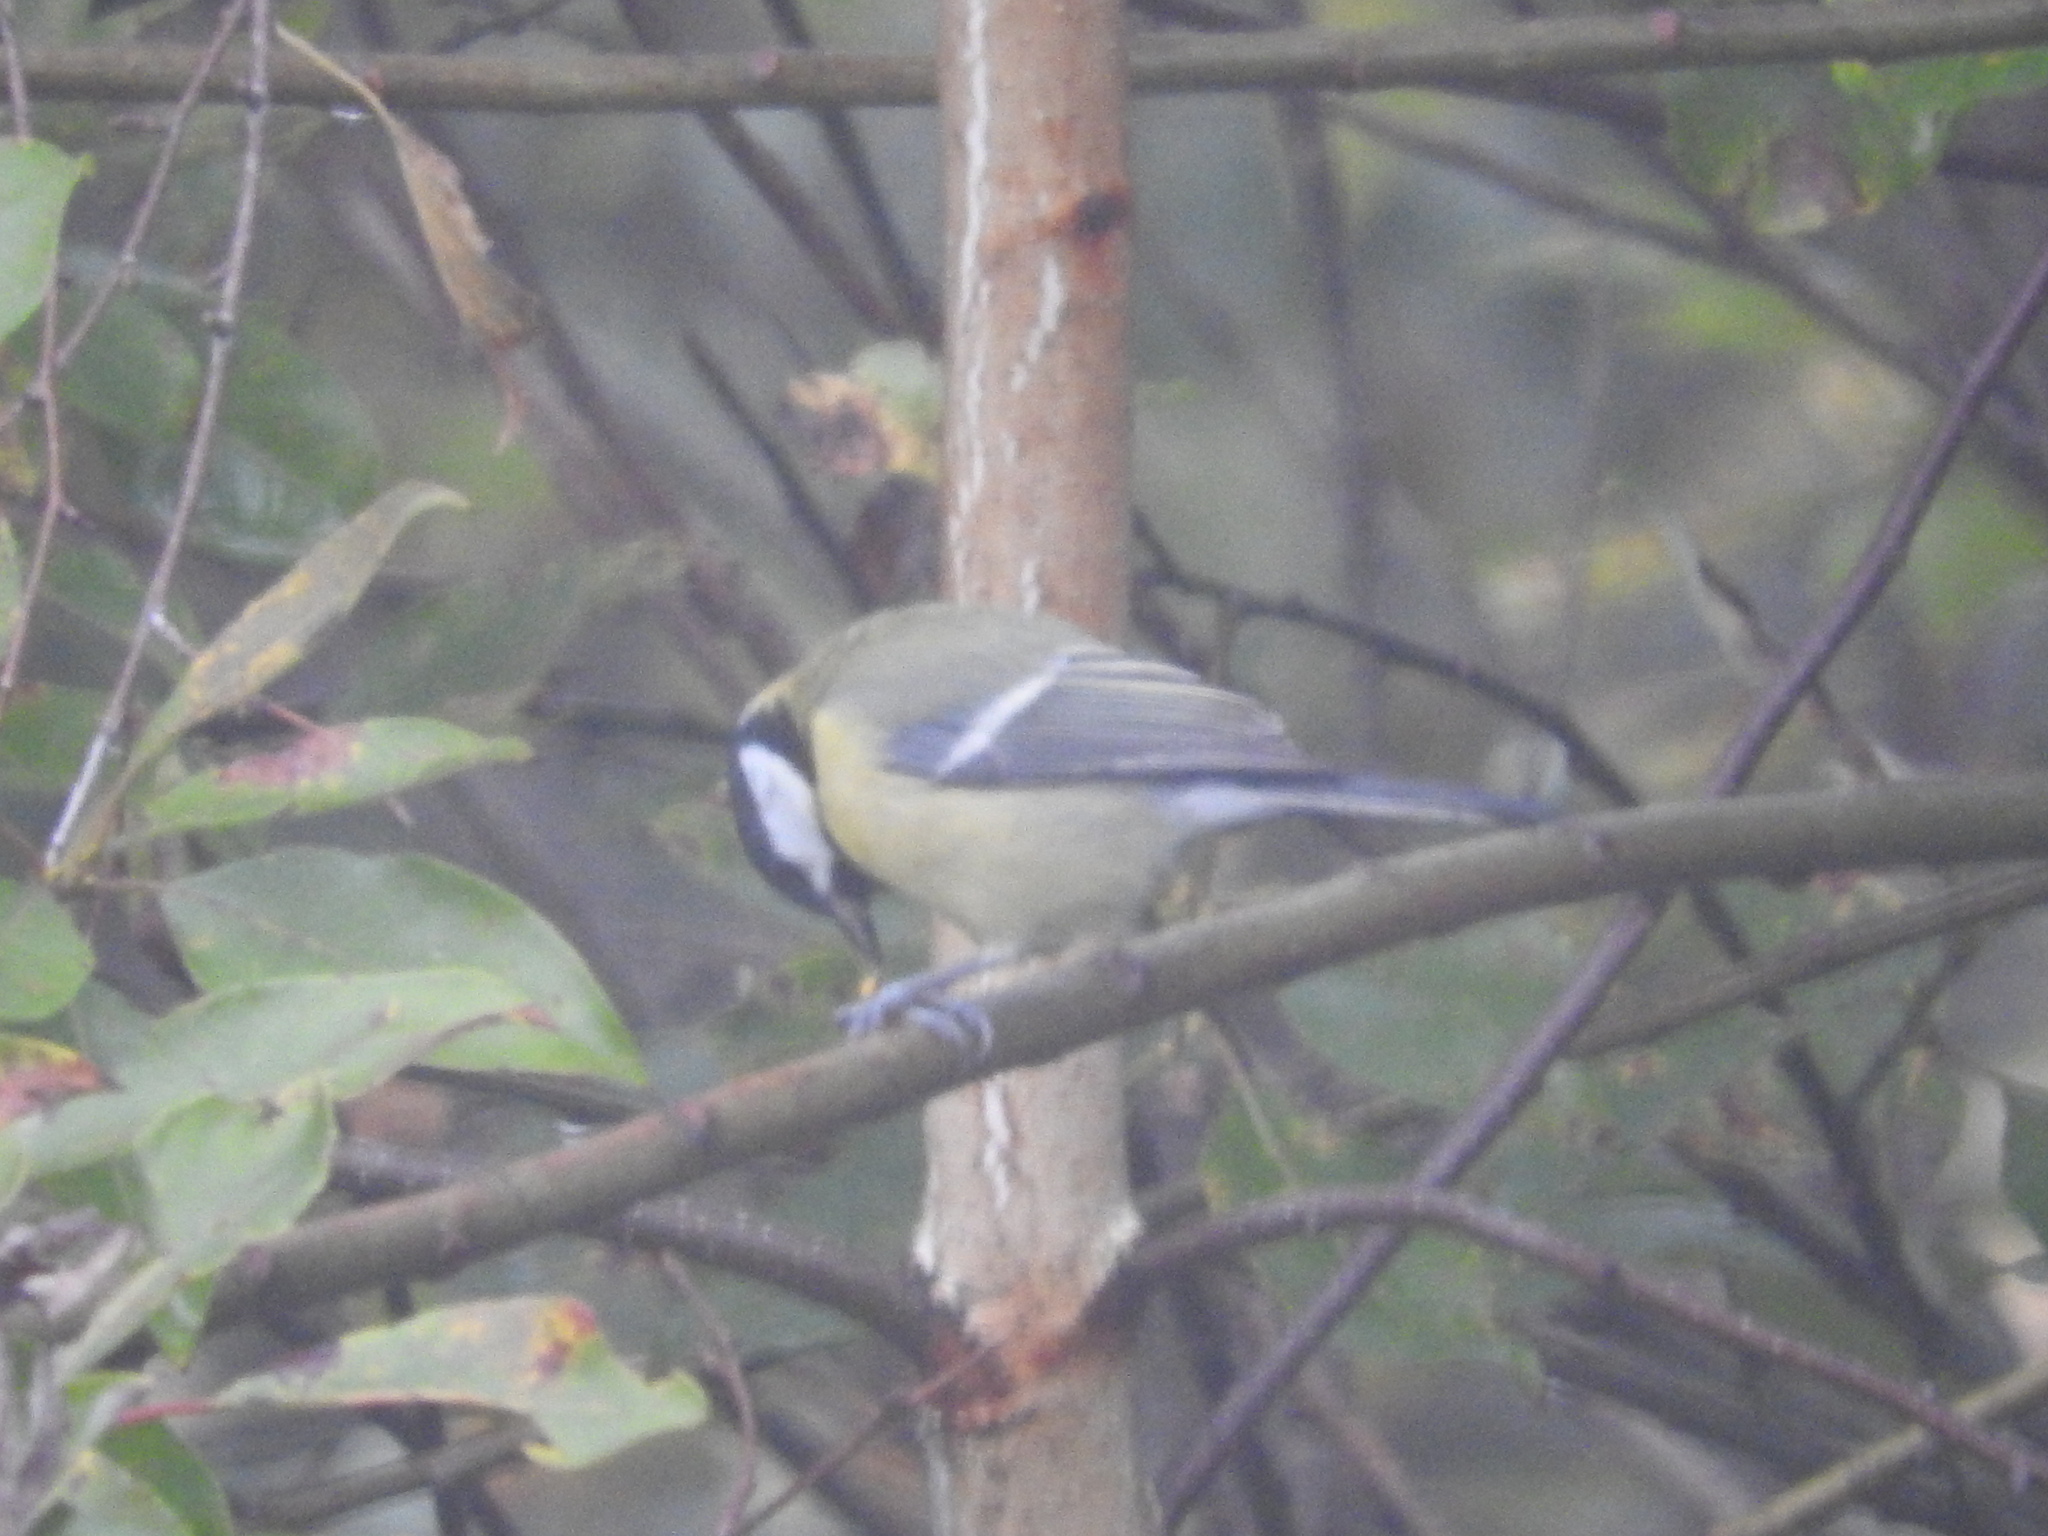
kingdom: Animalia
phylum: Chordata
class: Aves
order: Passeriformes
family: Paridae
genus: Parus
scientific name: Parus major
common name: Great tit
